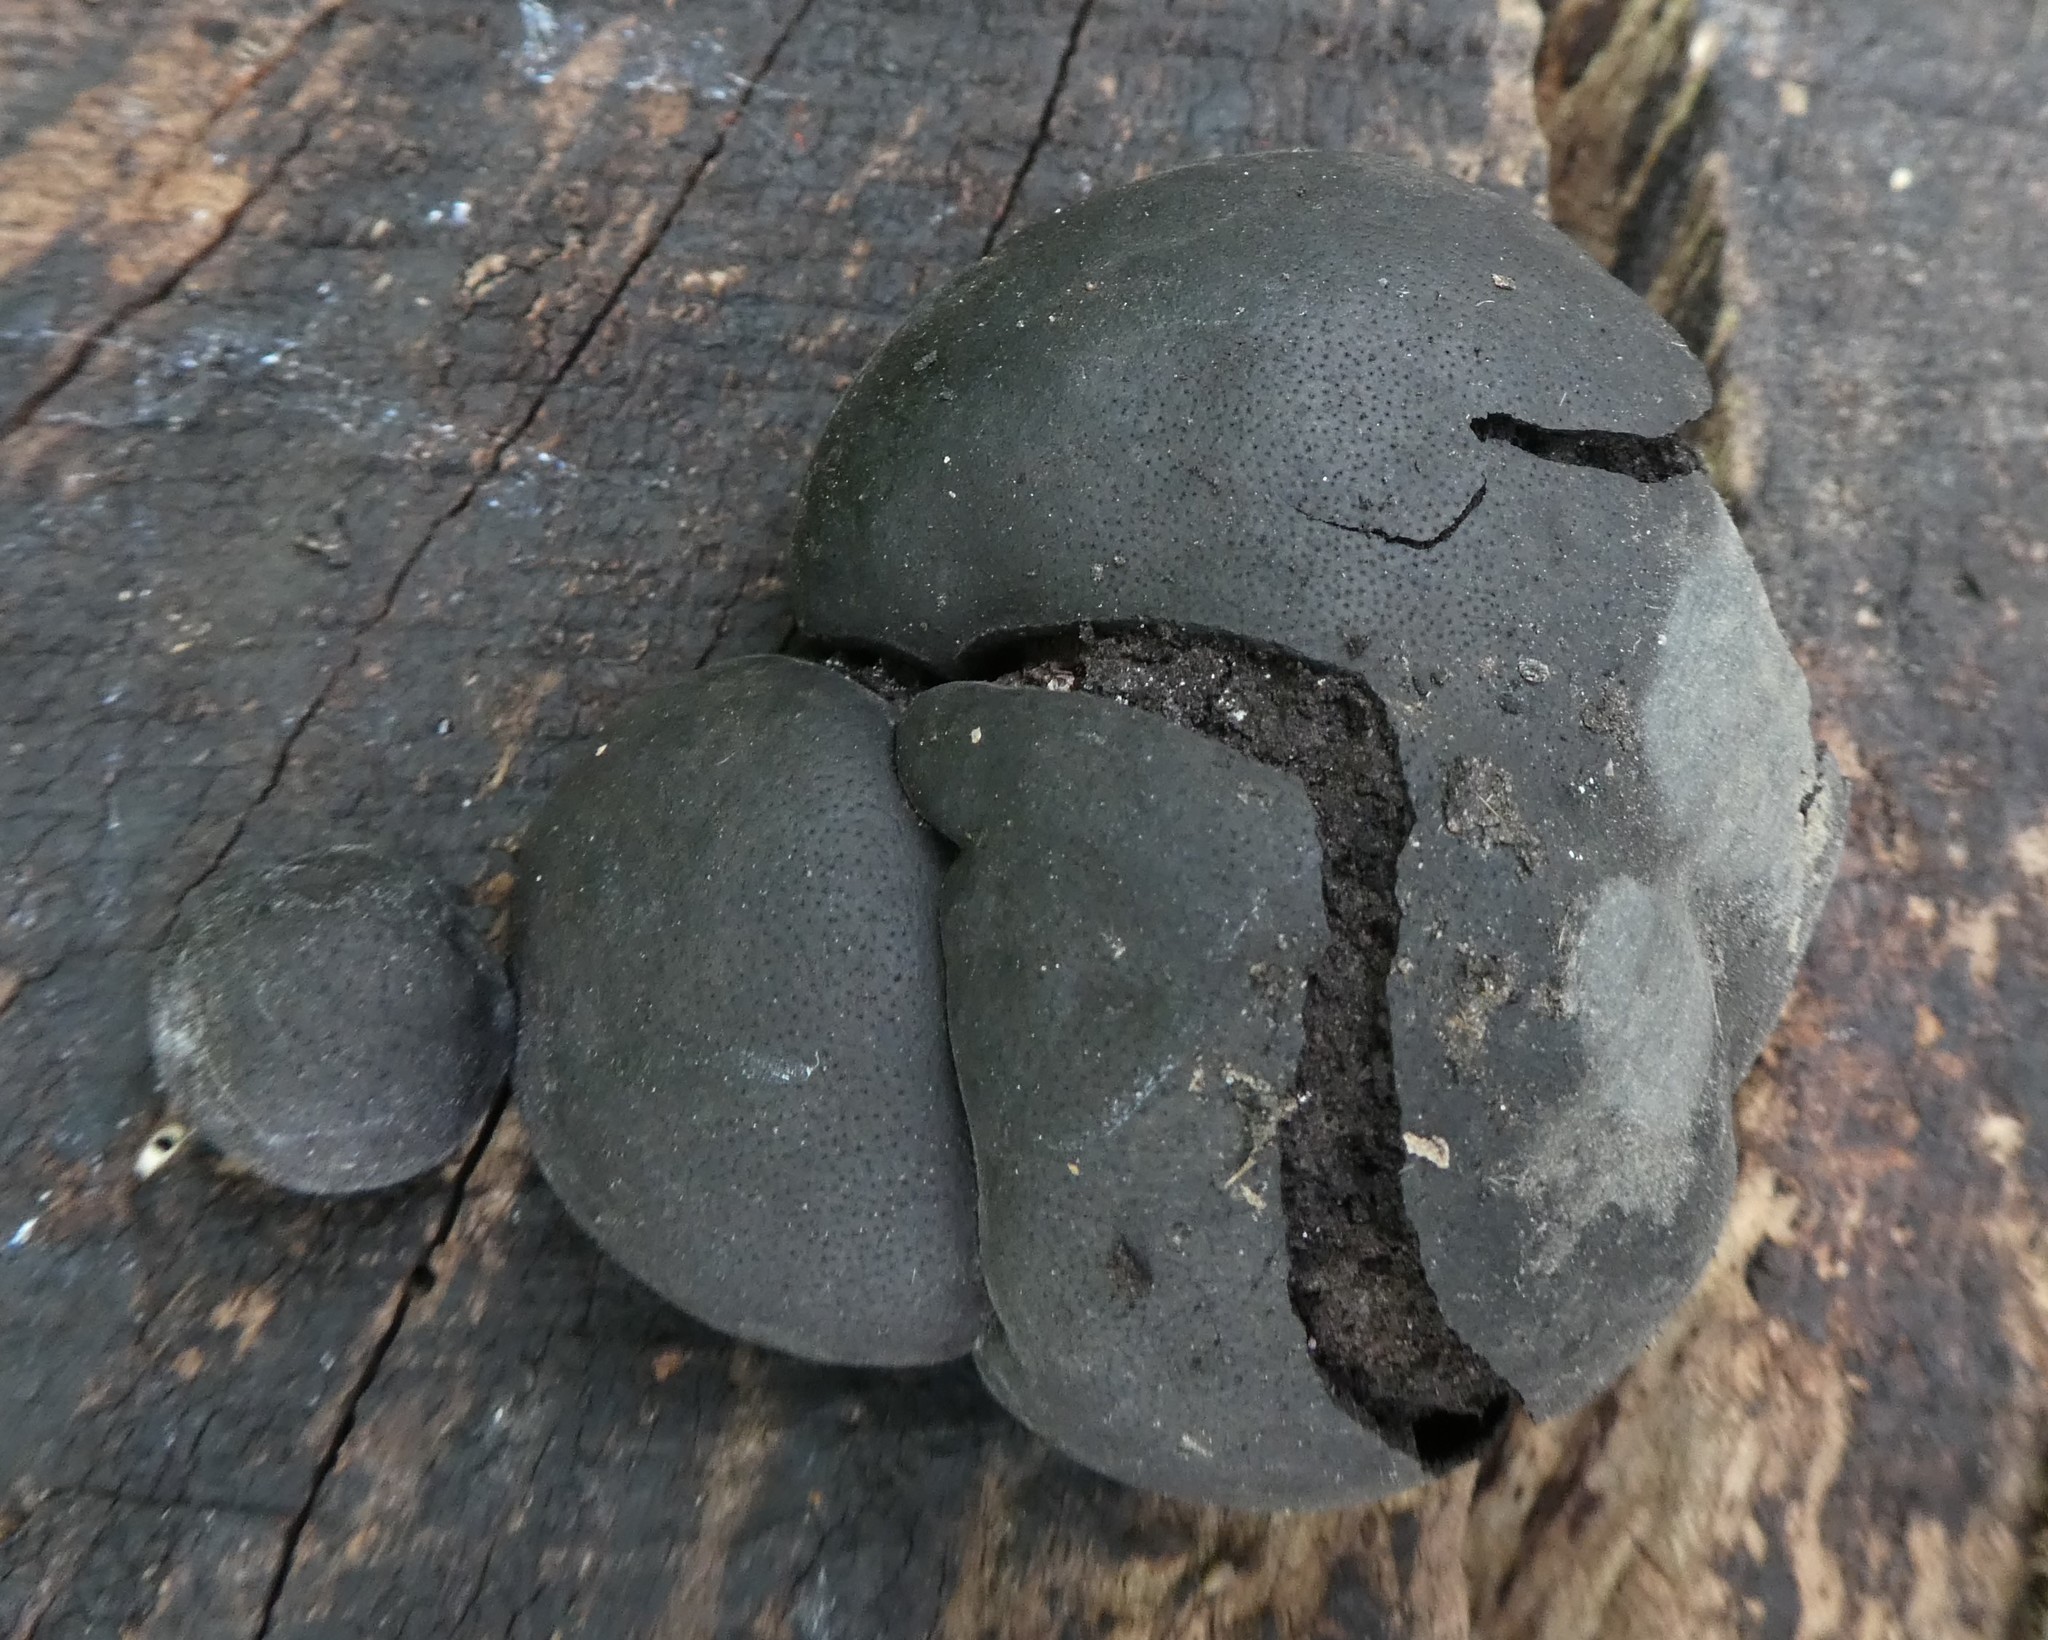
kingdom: Fungi
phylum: Ascomycota
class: Sordariomycetes
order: Xylariales
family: Hypoxylaceae
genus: Daldinia
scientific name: Daldinia concentrica
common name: Cramp balls
